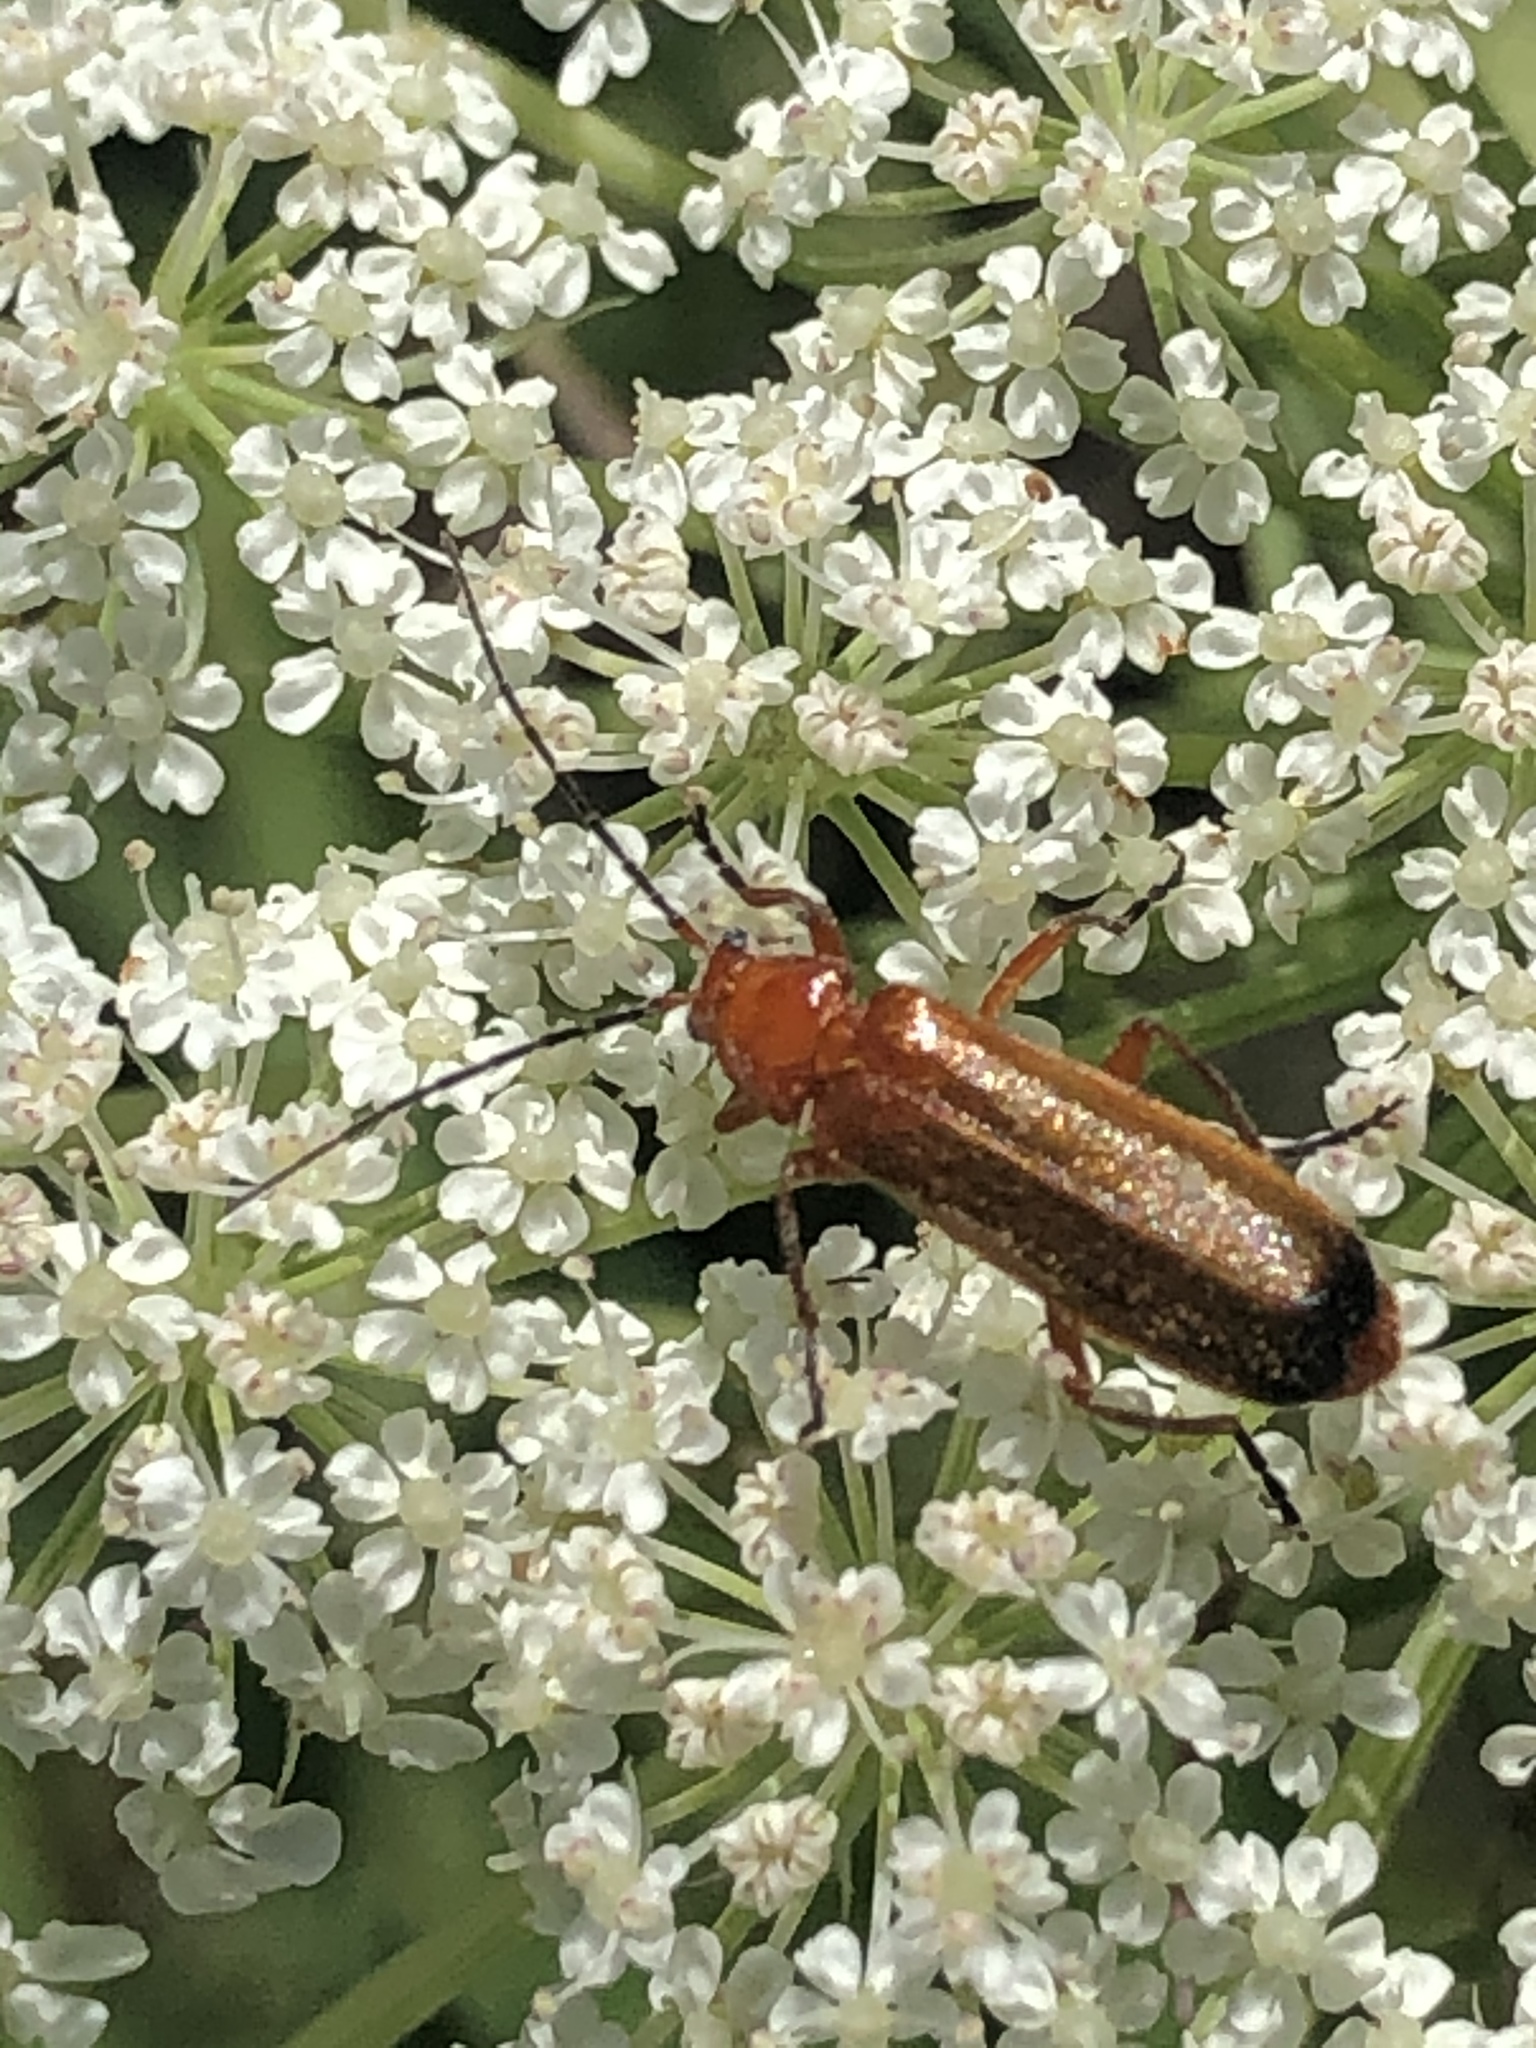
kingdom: Animalia
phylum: Arthropoda
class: Insecta
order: Coleoptera
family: Cantharidae
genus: Rhagonycha
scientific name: Rhagonycha fulva
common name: Common red soldier beetle
